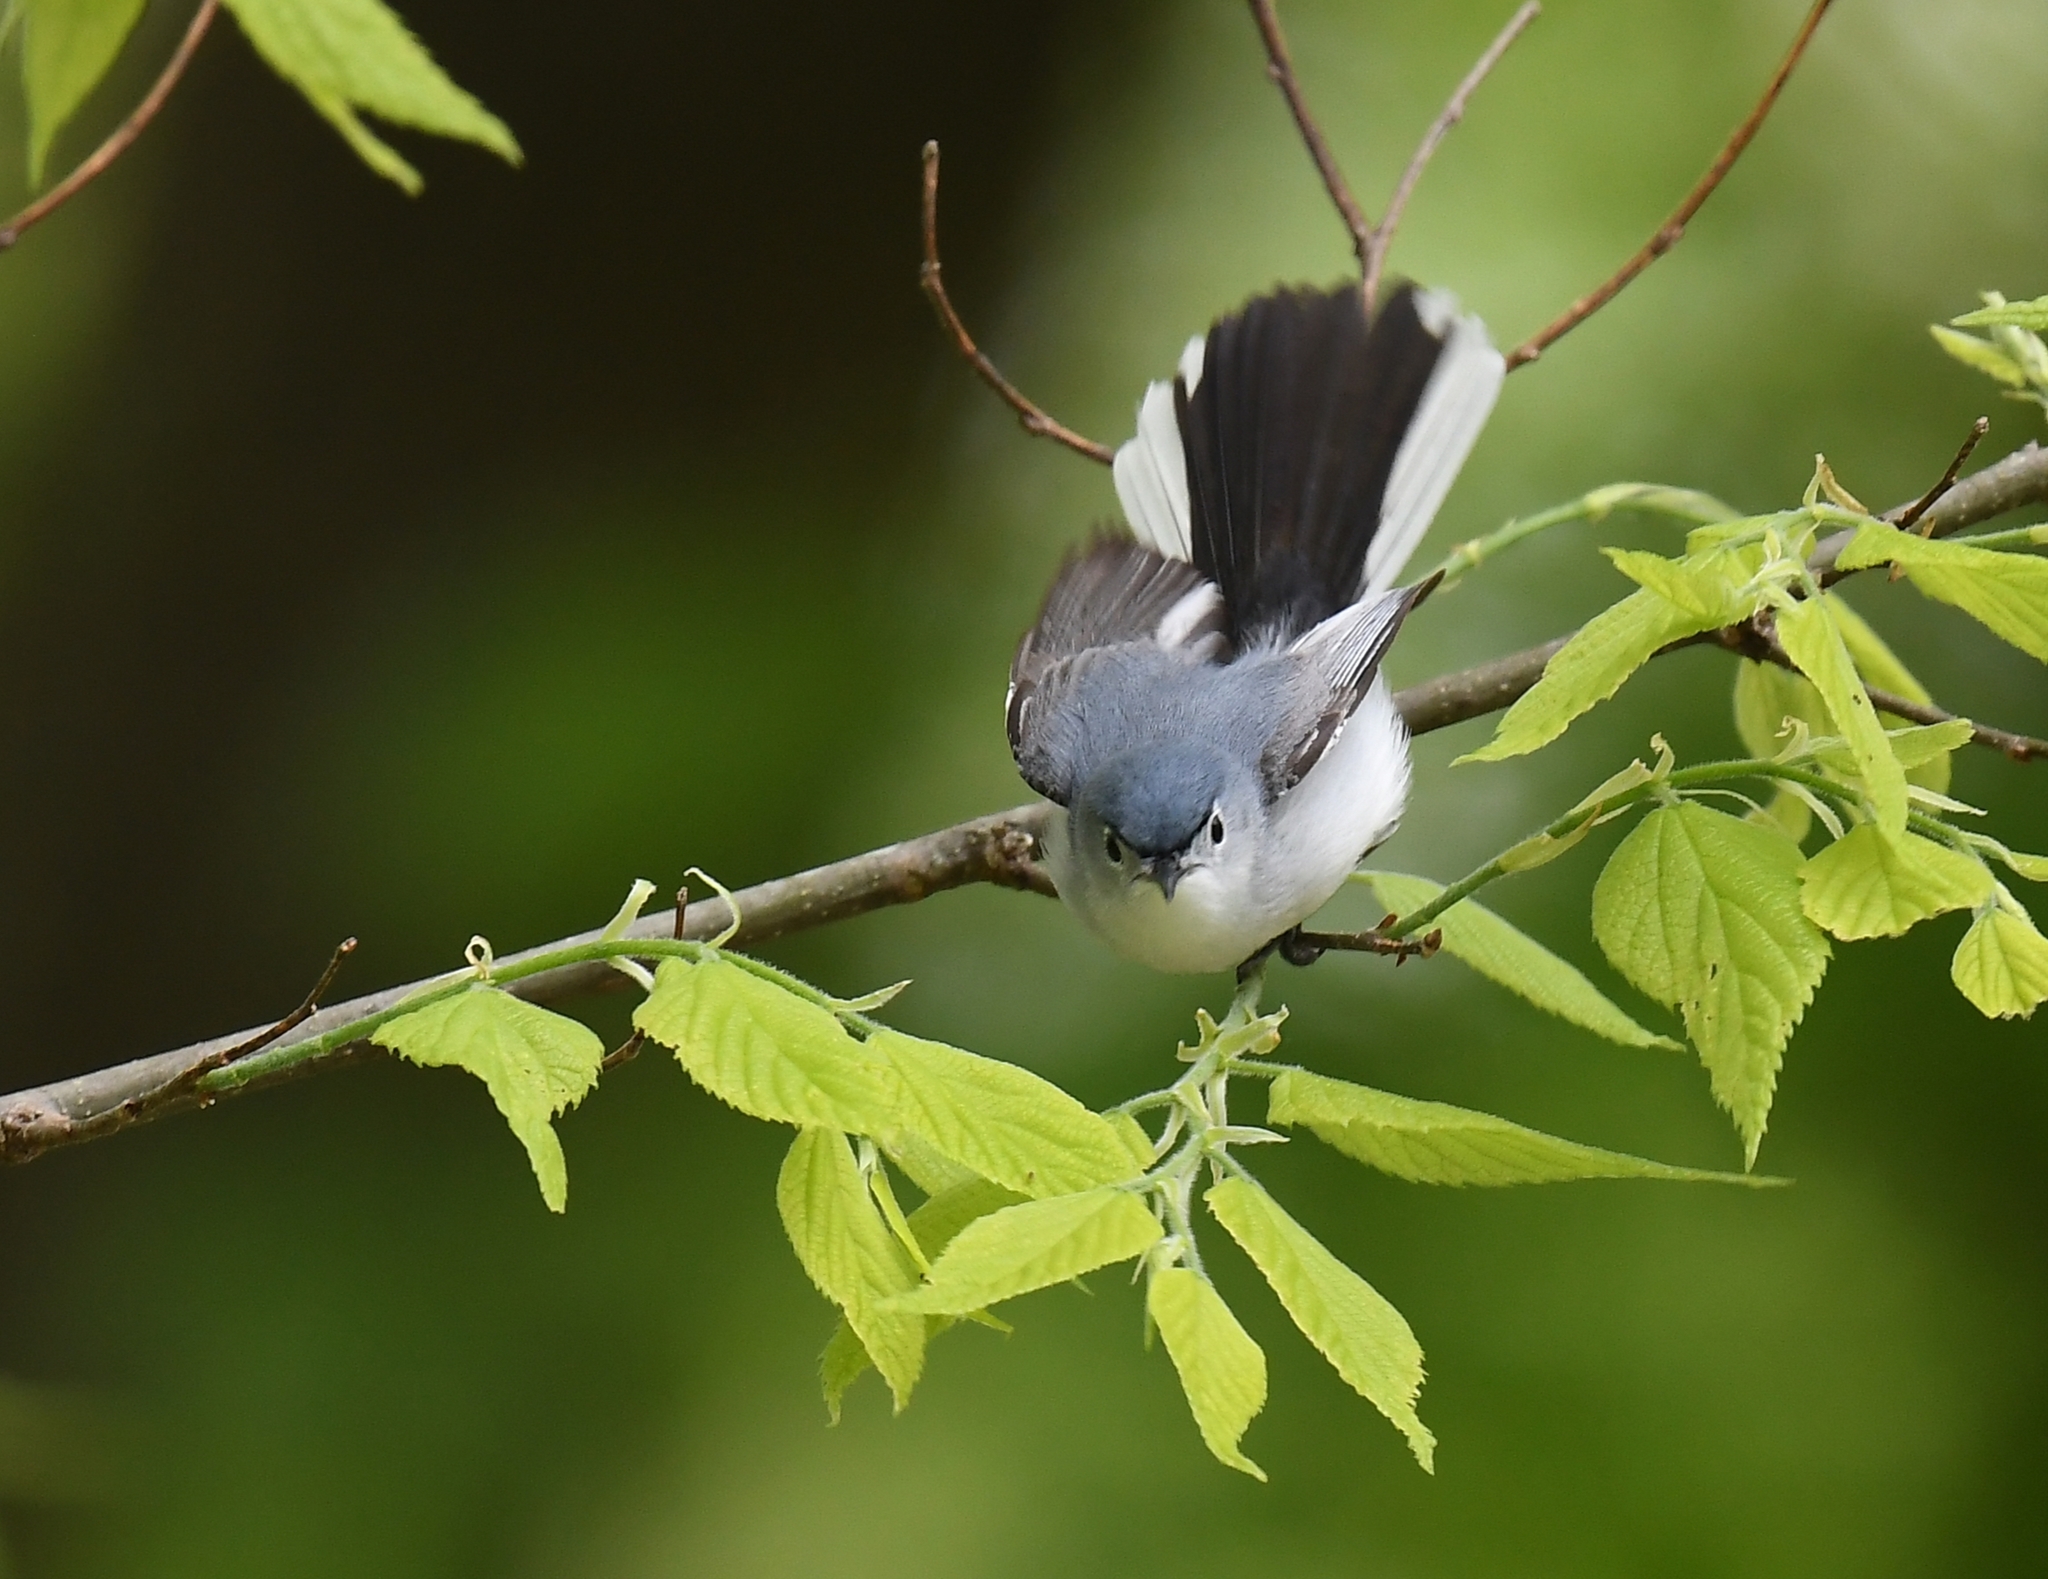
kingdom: Animalia
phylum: Chordata
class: Aves
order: Passeriformes
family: Polioptilidae
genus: Polioptila
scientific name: Polioptila caerulea
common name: Blue-gray gnatcatcher
